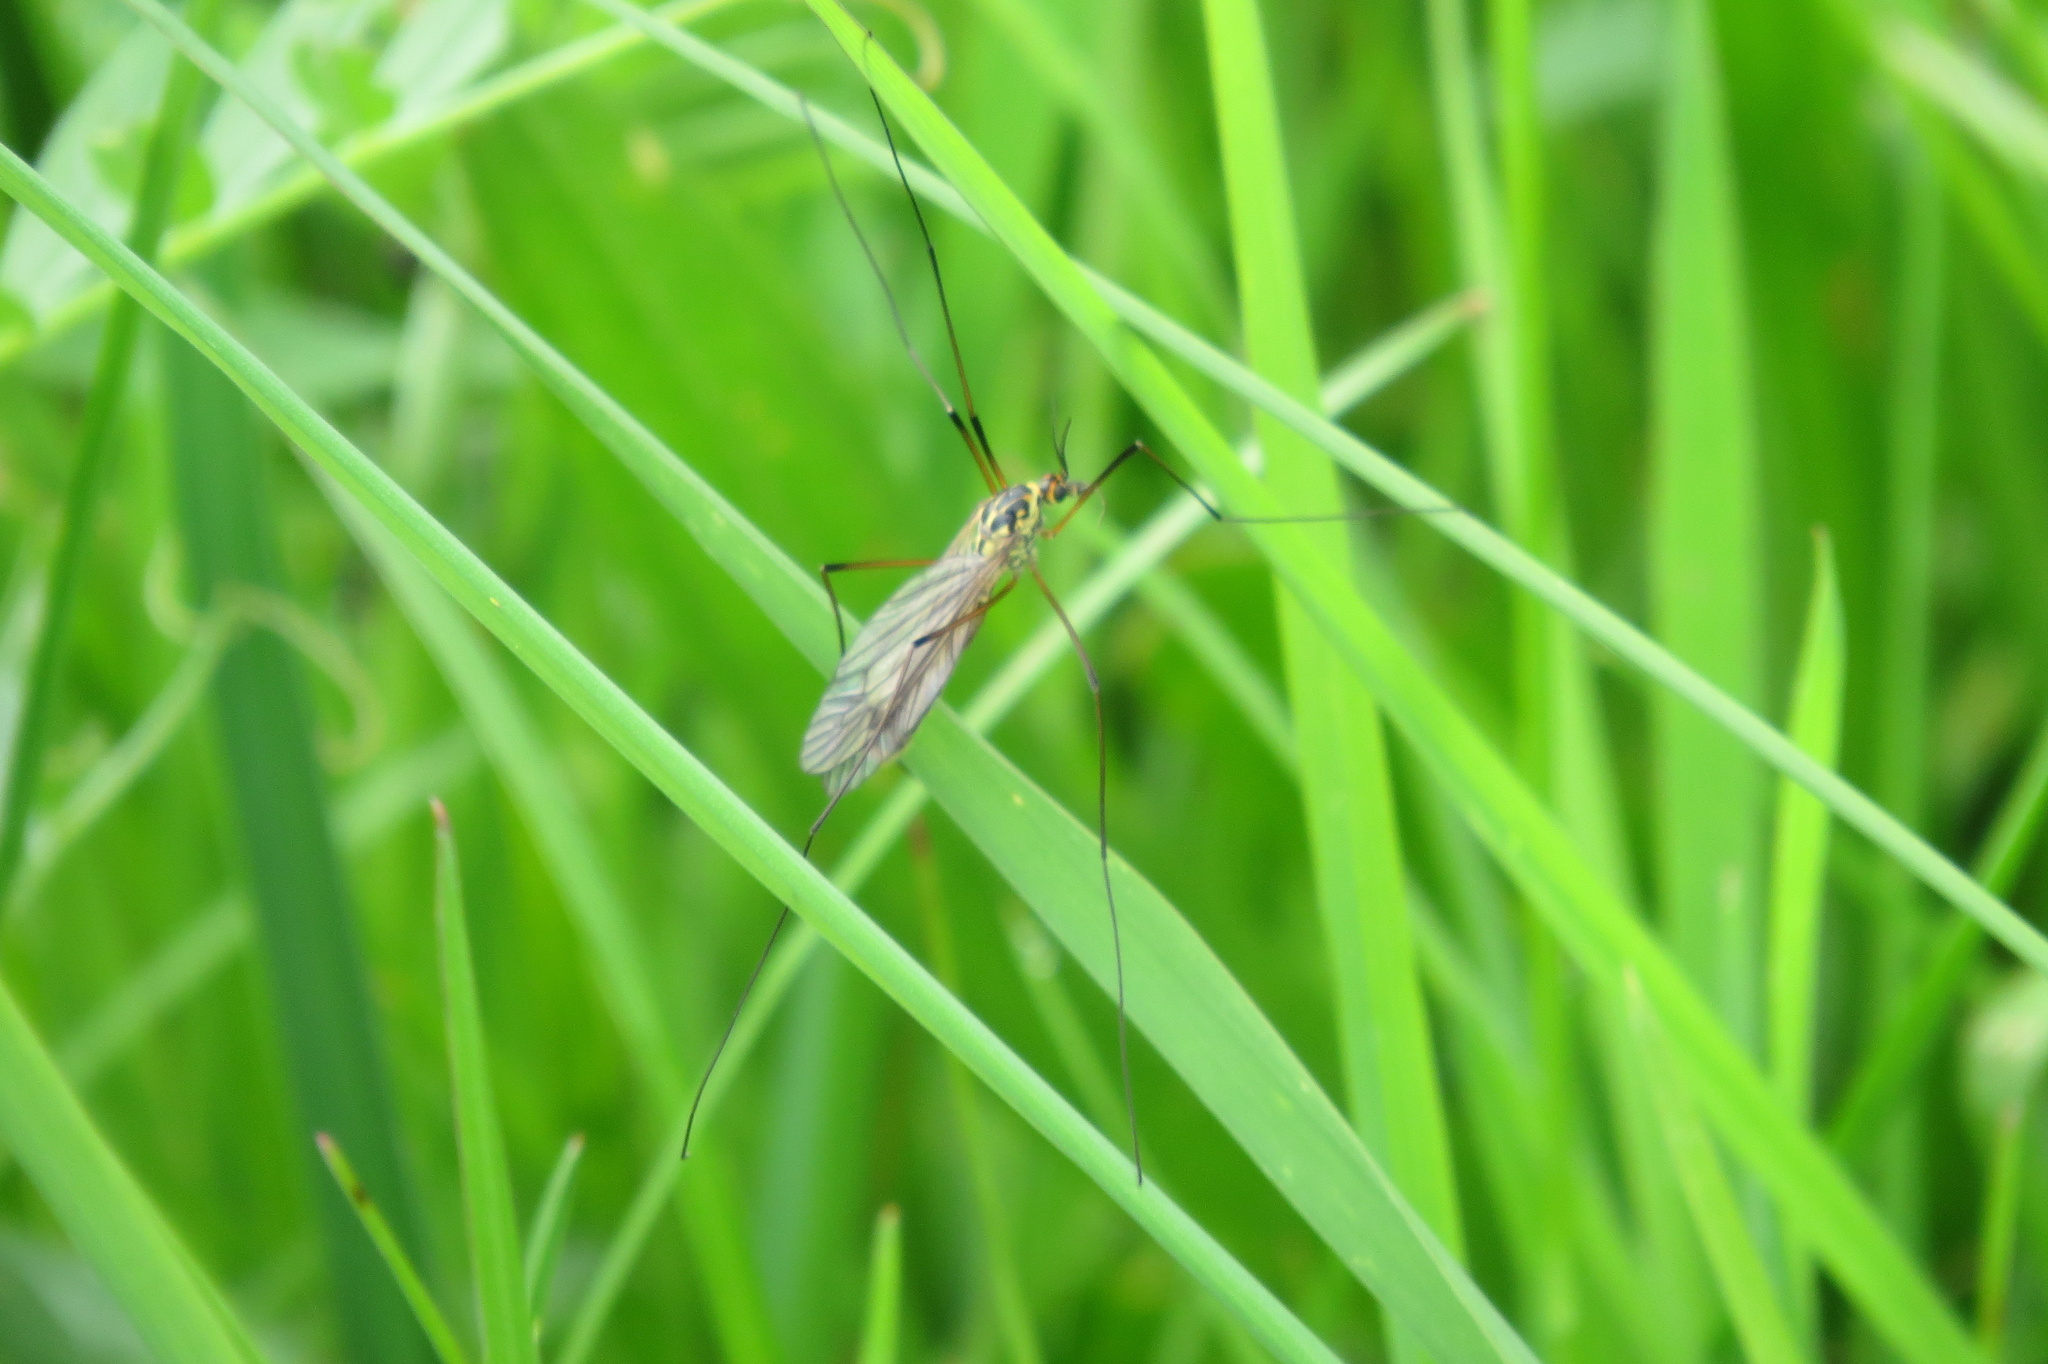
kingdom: Animalia
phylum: Arthropoda
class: Insecta
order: Diptera
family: Tipulidae
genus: Nephrotoma
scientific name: Nephrotoma appendiculata
